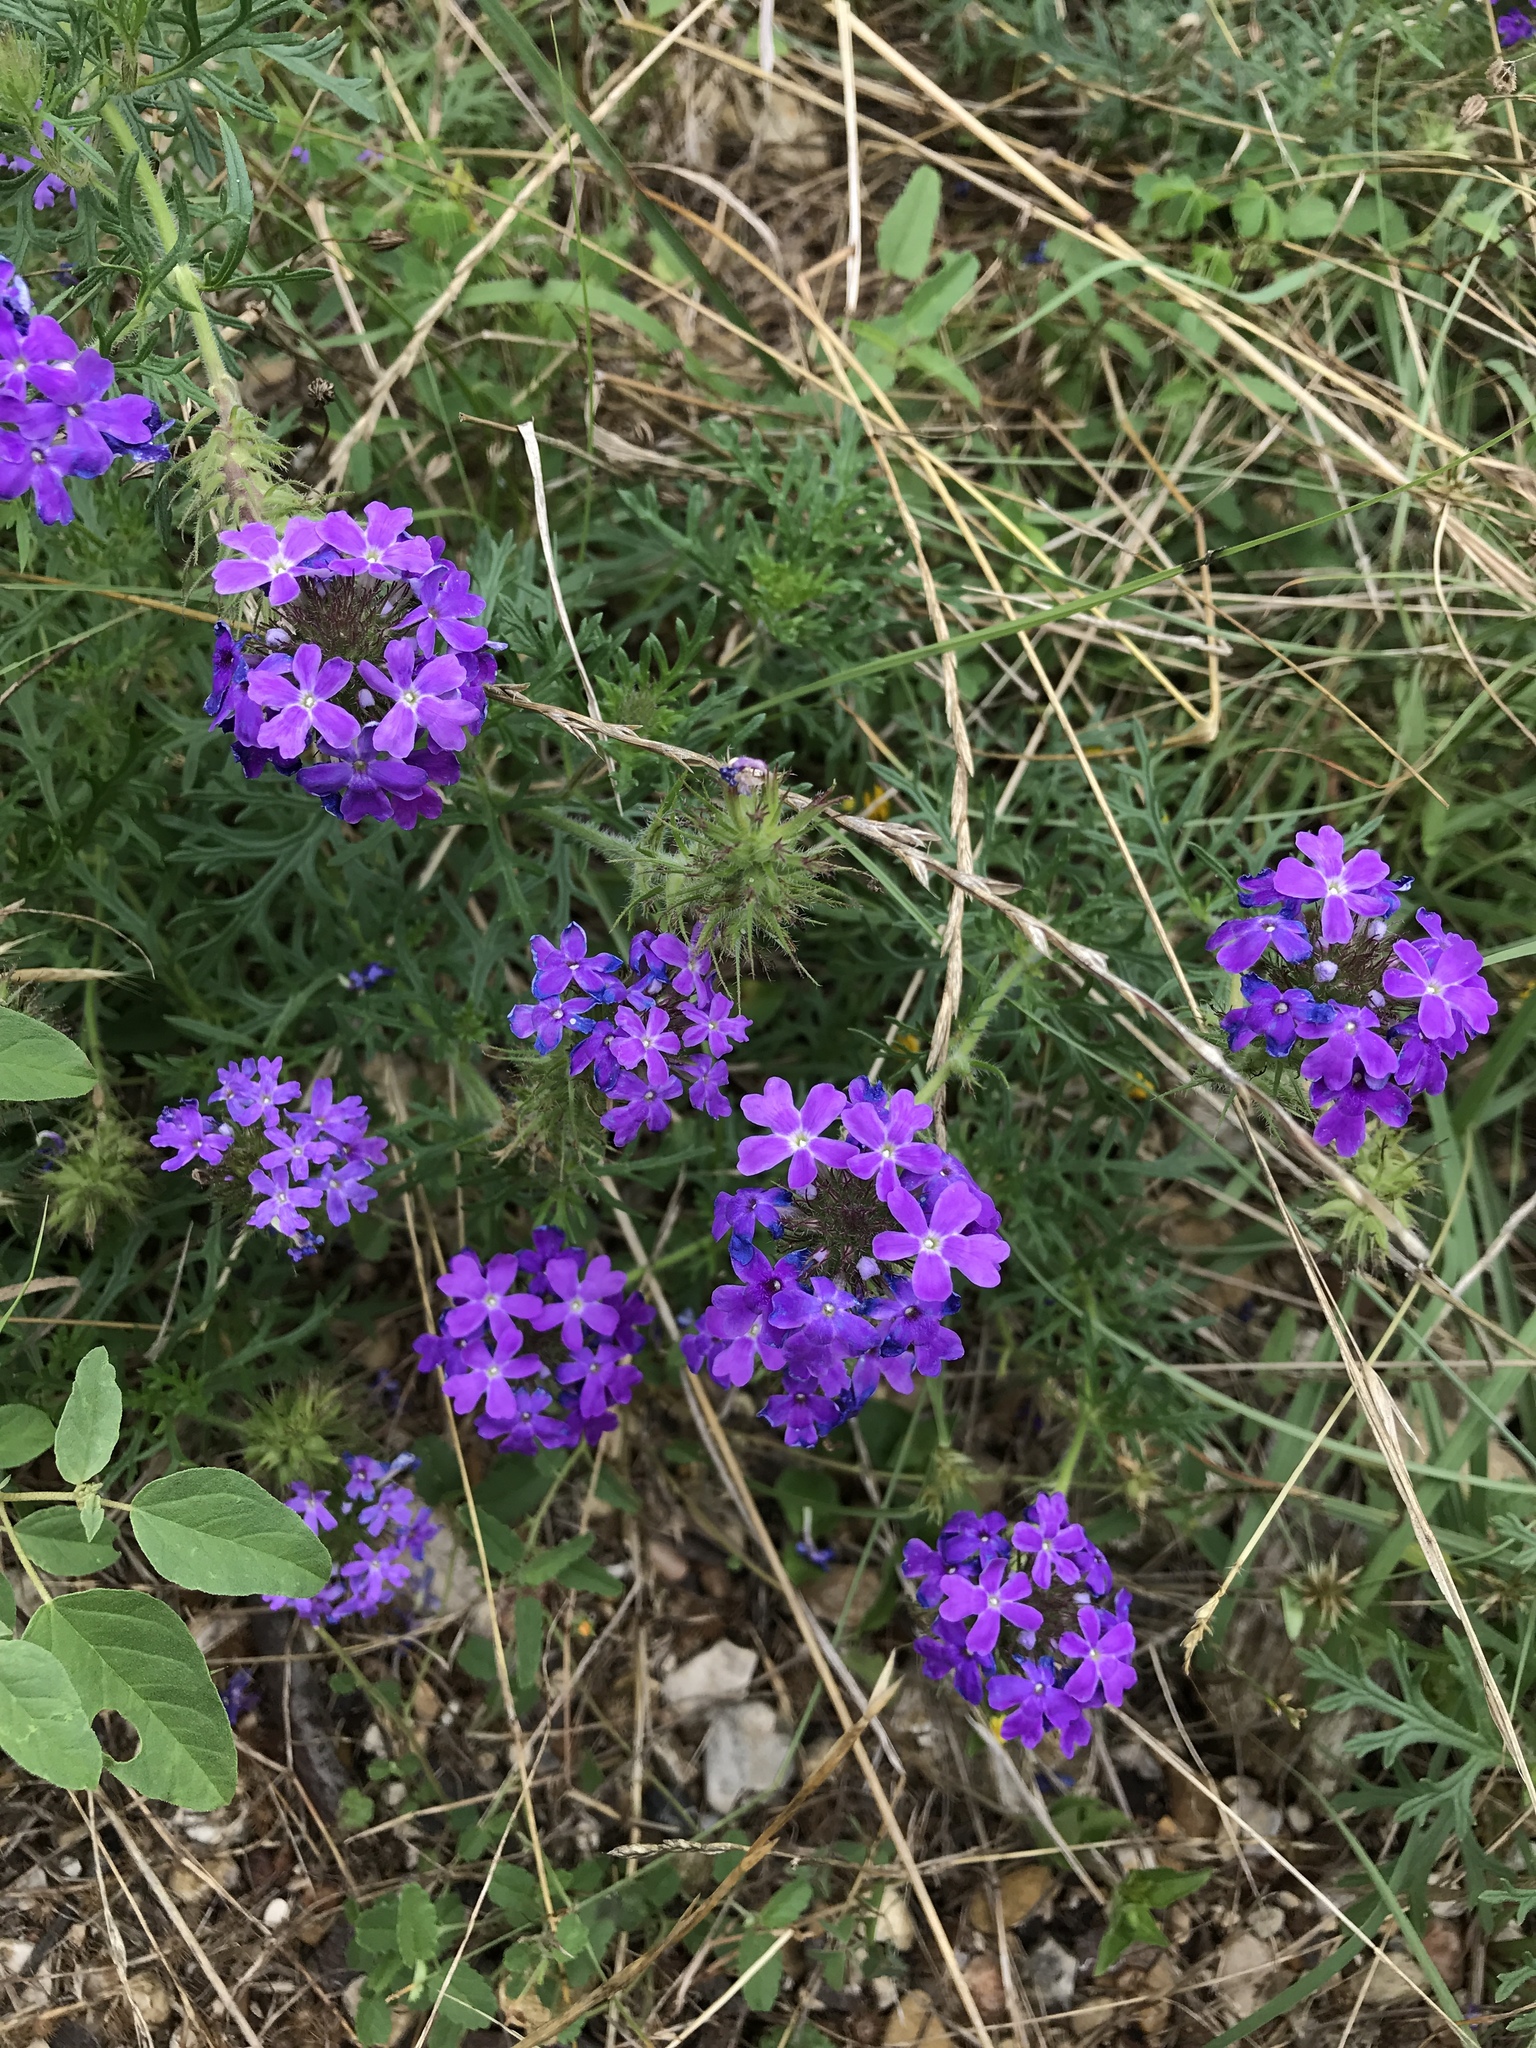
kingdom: Plantae
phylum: Tracheophyta
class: Magnoliopsida
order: Lamiales
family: Verbenaceae
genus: Verbena
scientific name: Verbena bipinnatifida
